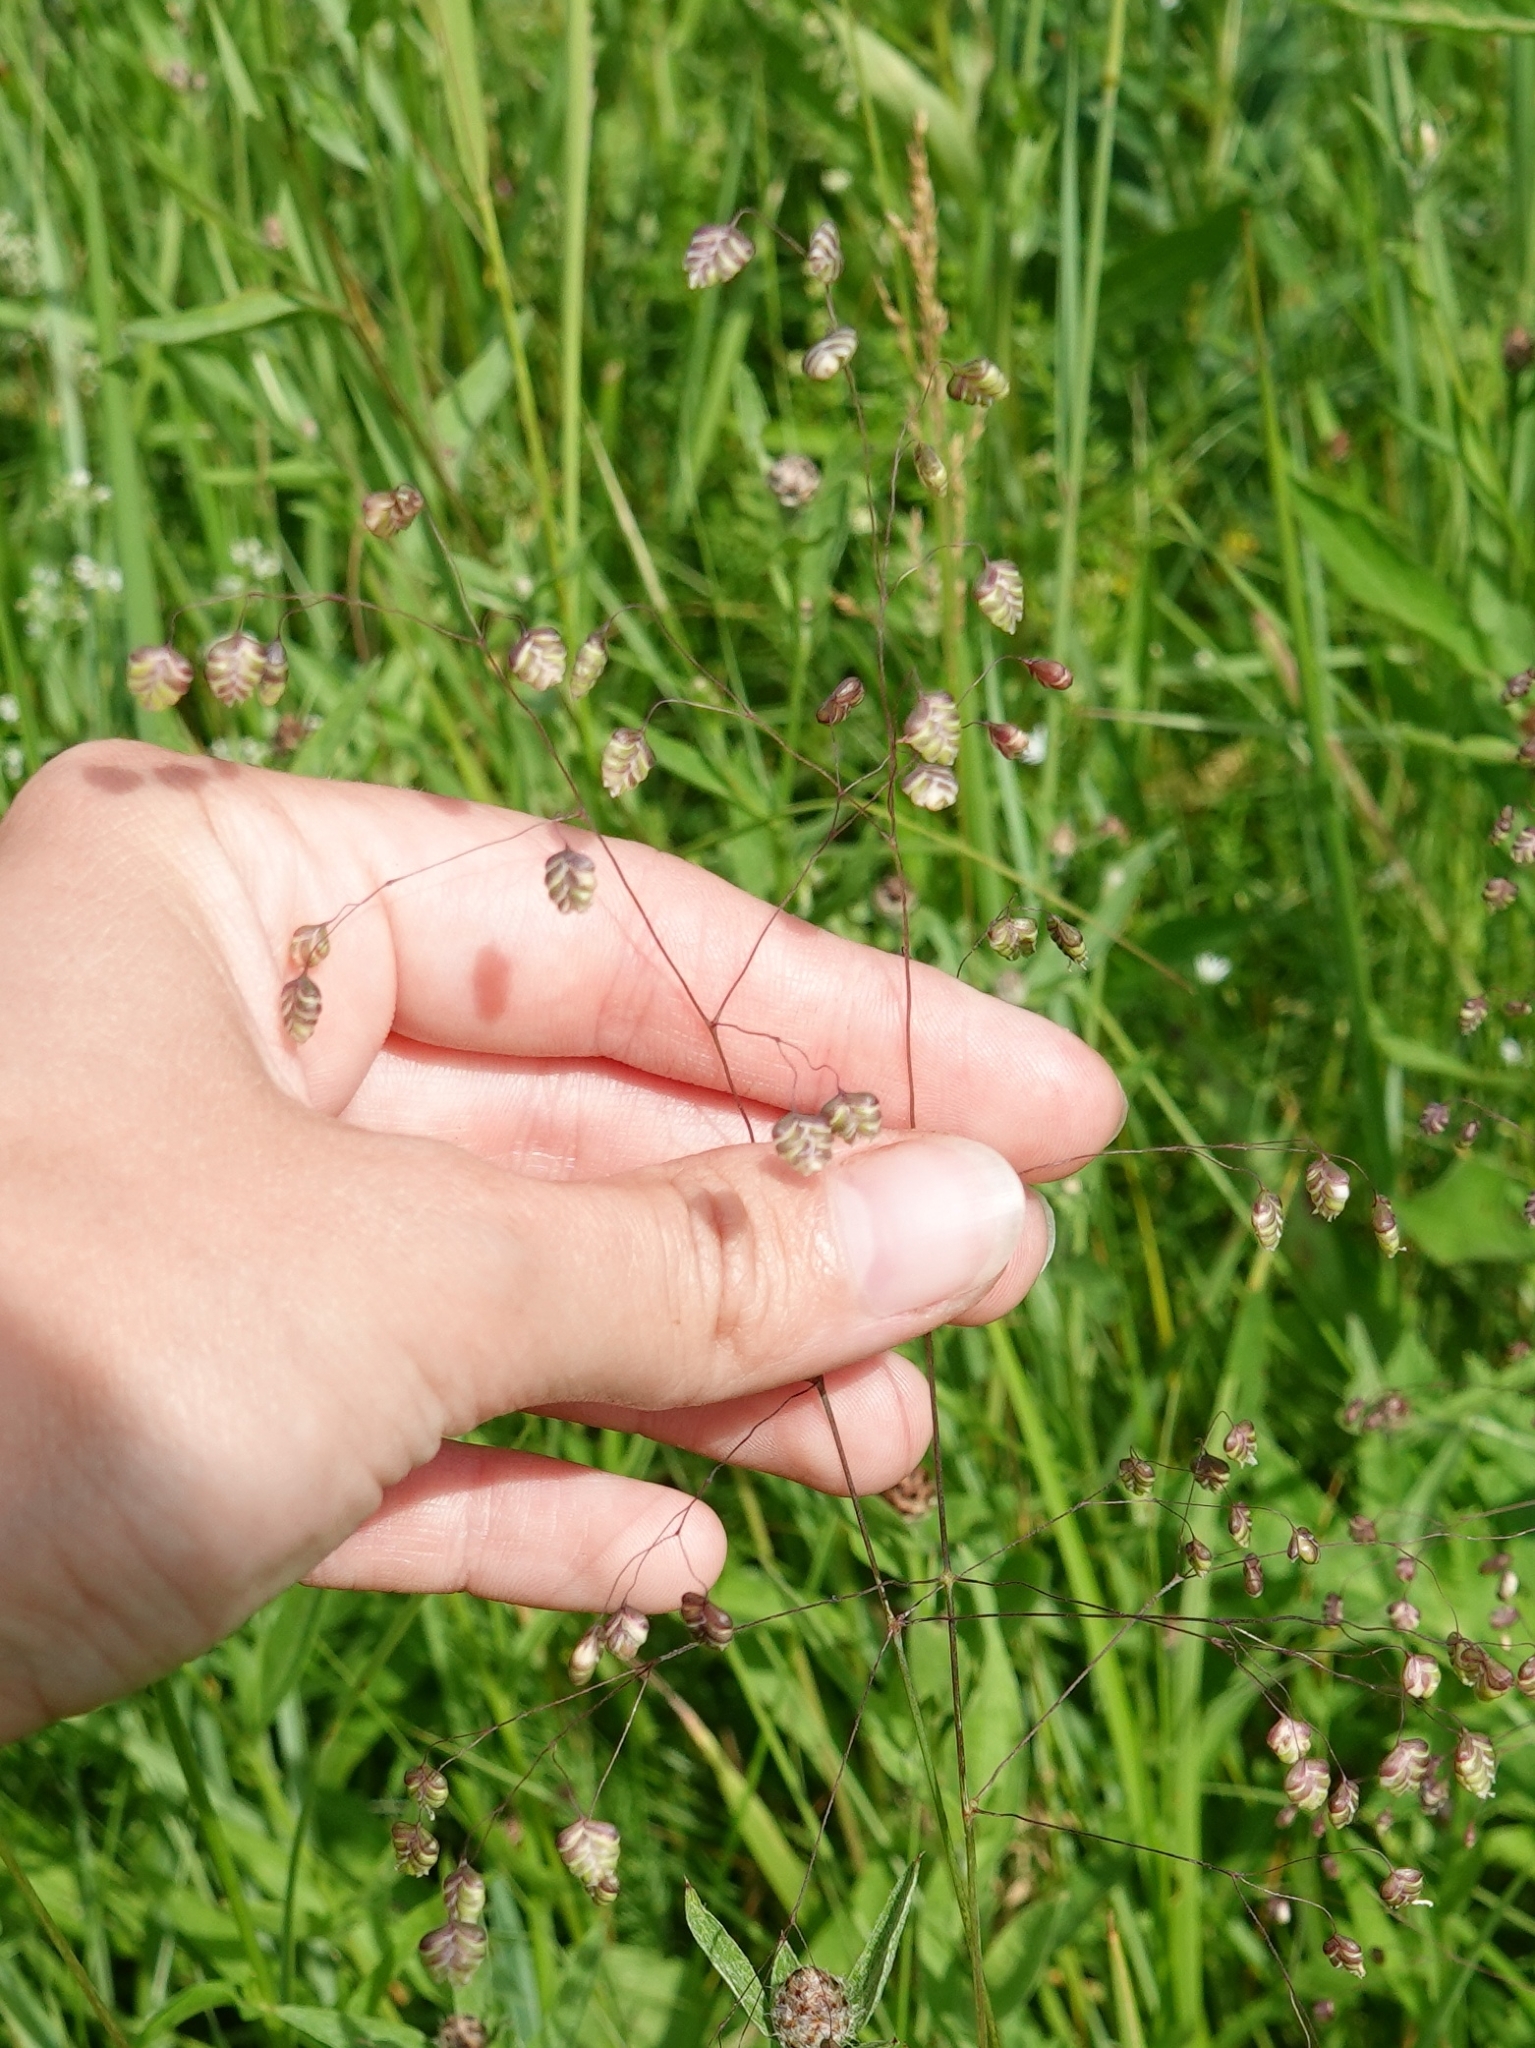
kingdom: Plantae
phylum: Tracheophyta
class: Liliopsida
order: Poales
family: Poaceae
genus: Briza
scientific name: Briza media
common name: Quaking grass
